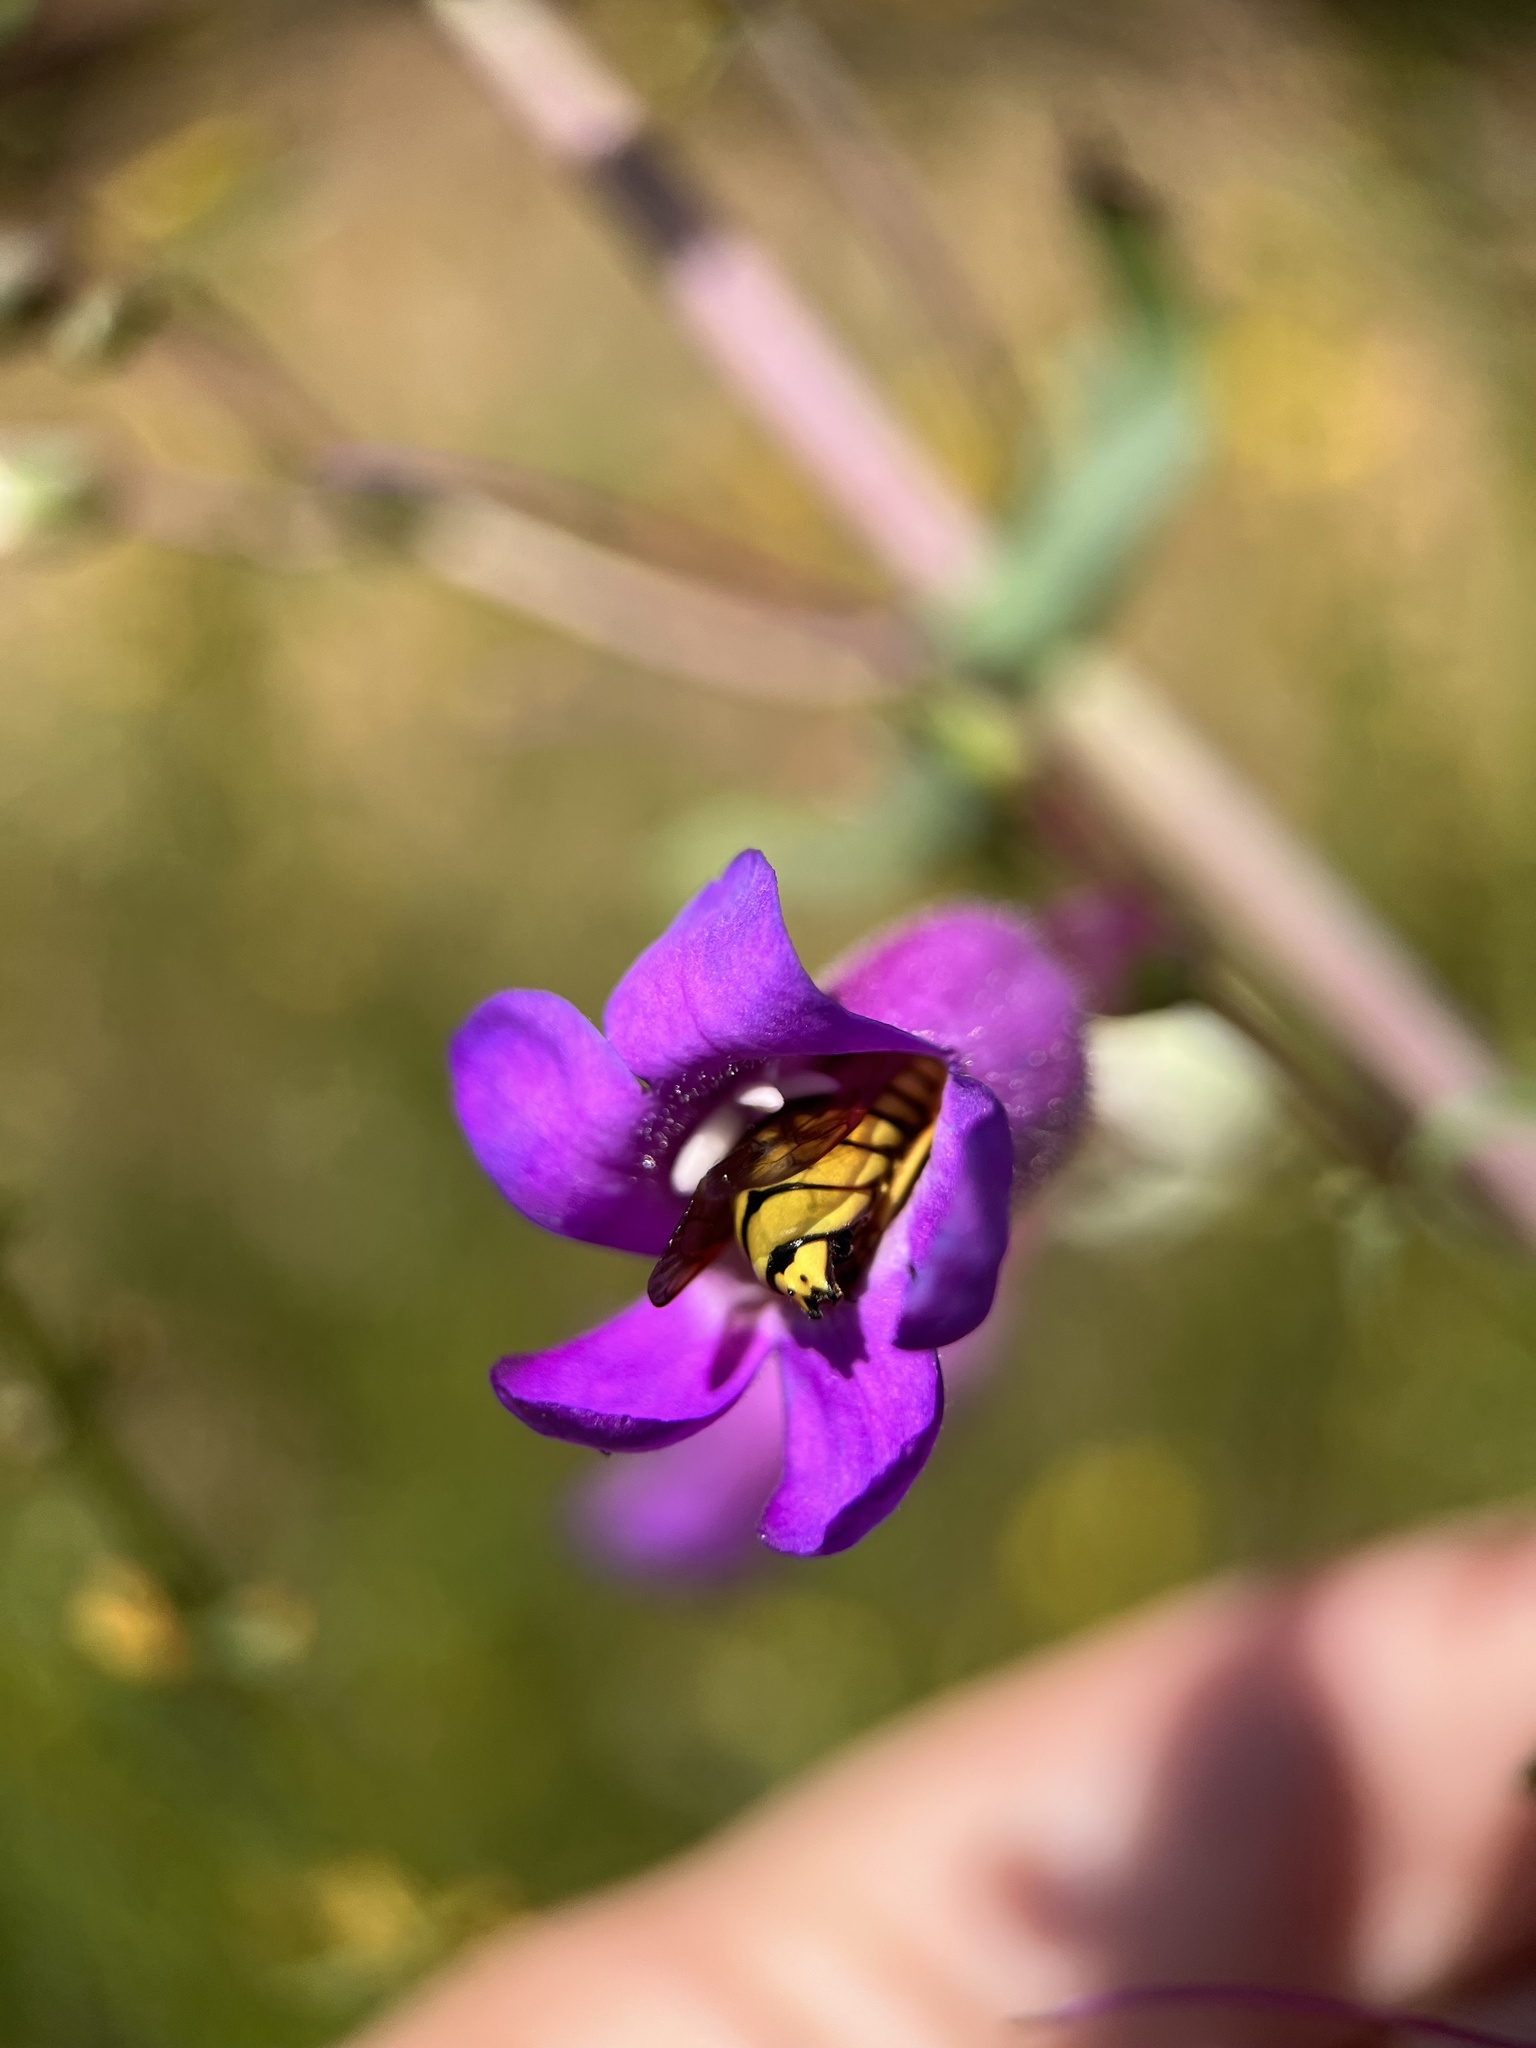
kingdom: Animalia
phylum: Arthropoda
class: Insecta
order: Hymenoptera
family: Masaridae
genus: Pseudomasaris
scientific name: Pseudomasaris vespoides
